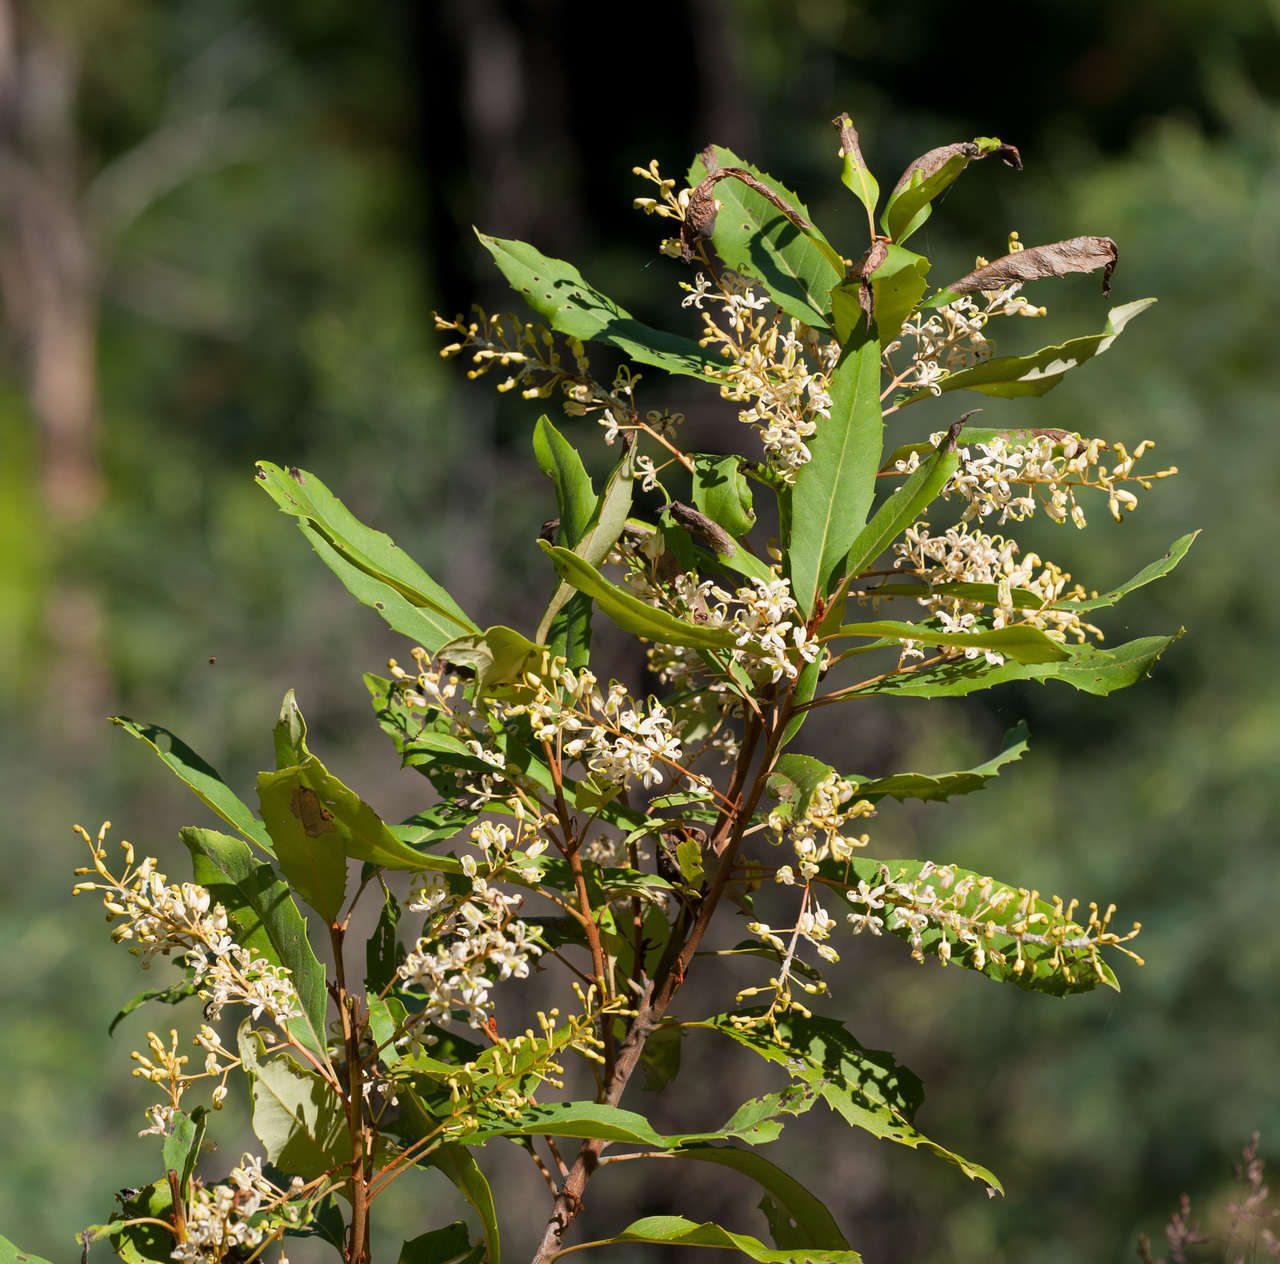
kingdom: Plantae
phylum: Tracheophyta
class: Magnoliopsida
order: Proteales
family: Proteaceae
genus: Lomatia
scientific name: Lomatia fraseri
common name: Forest lomatia
